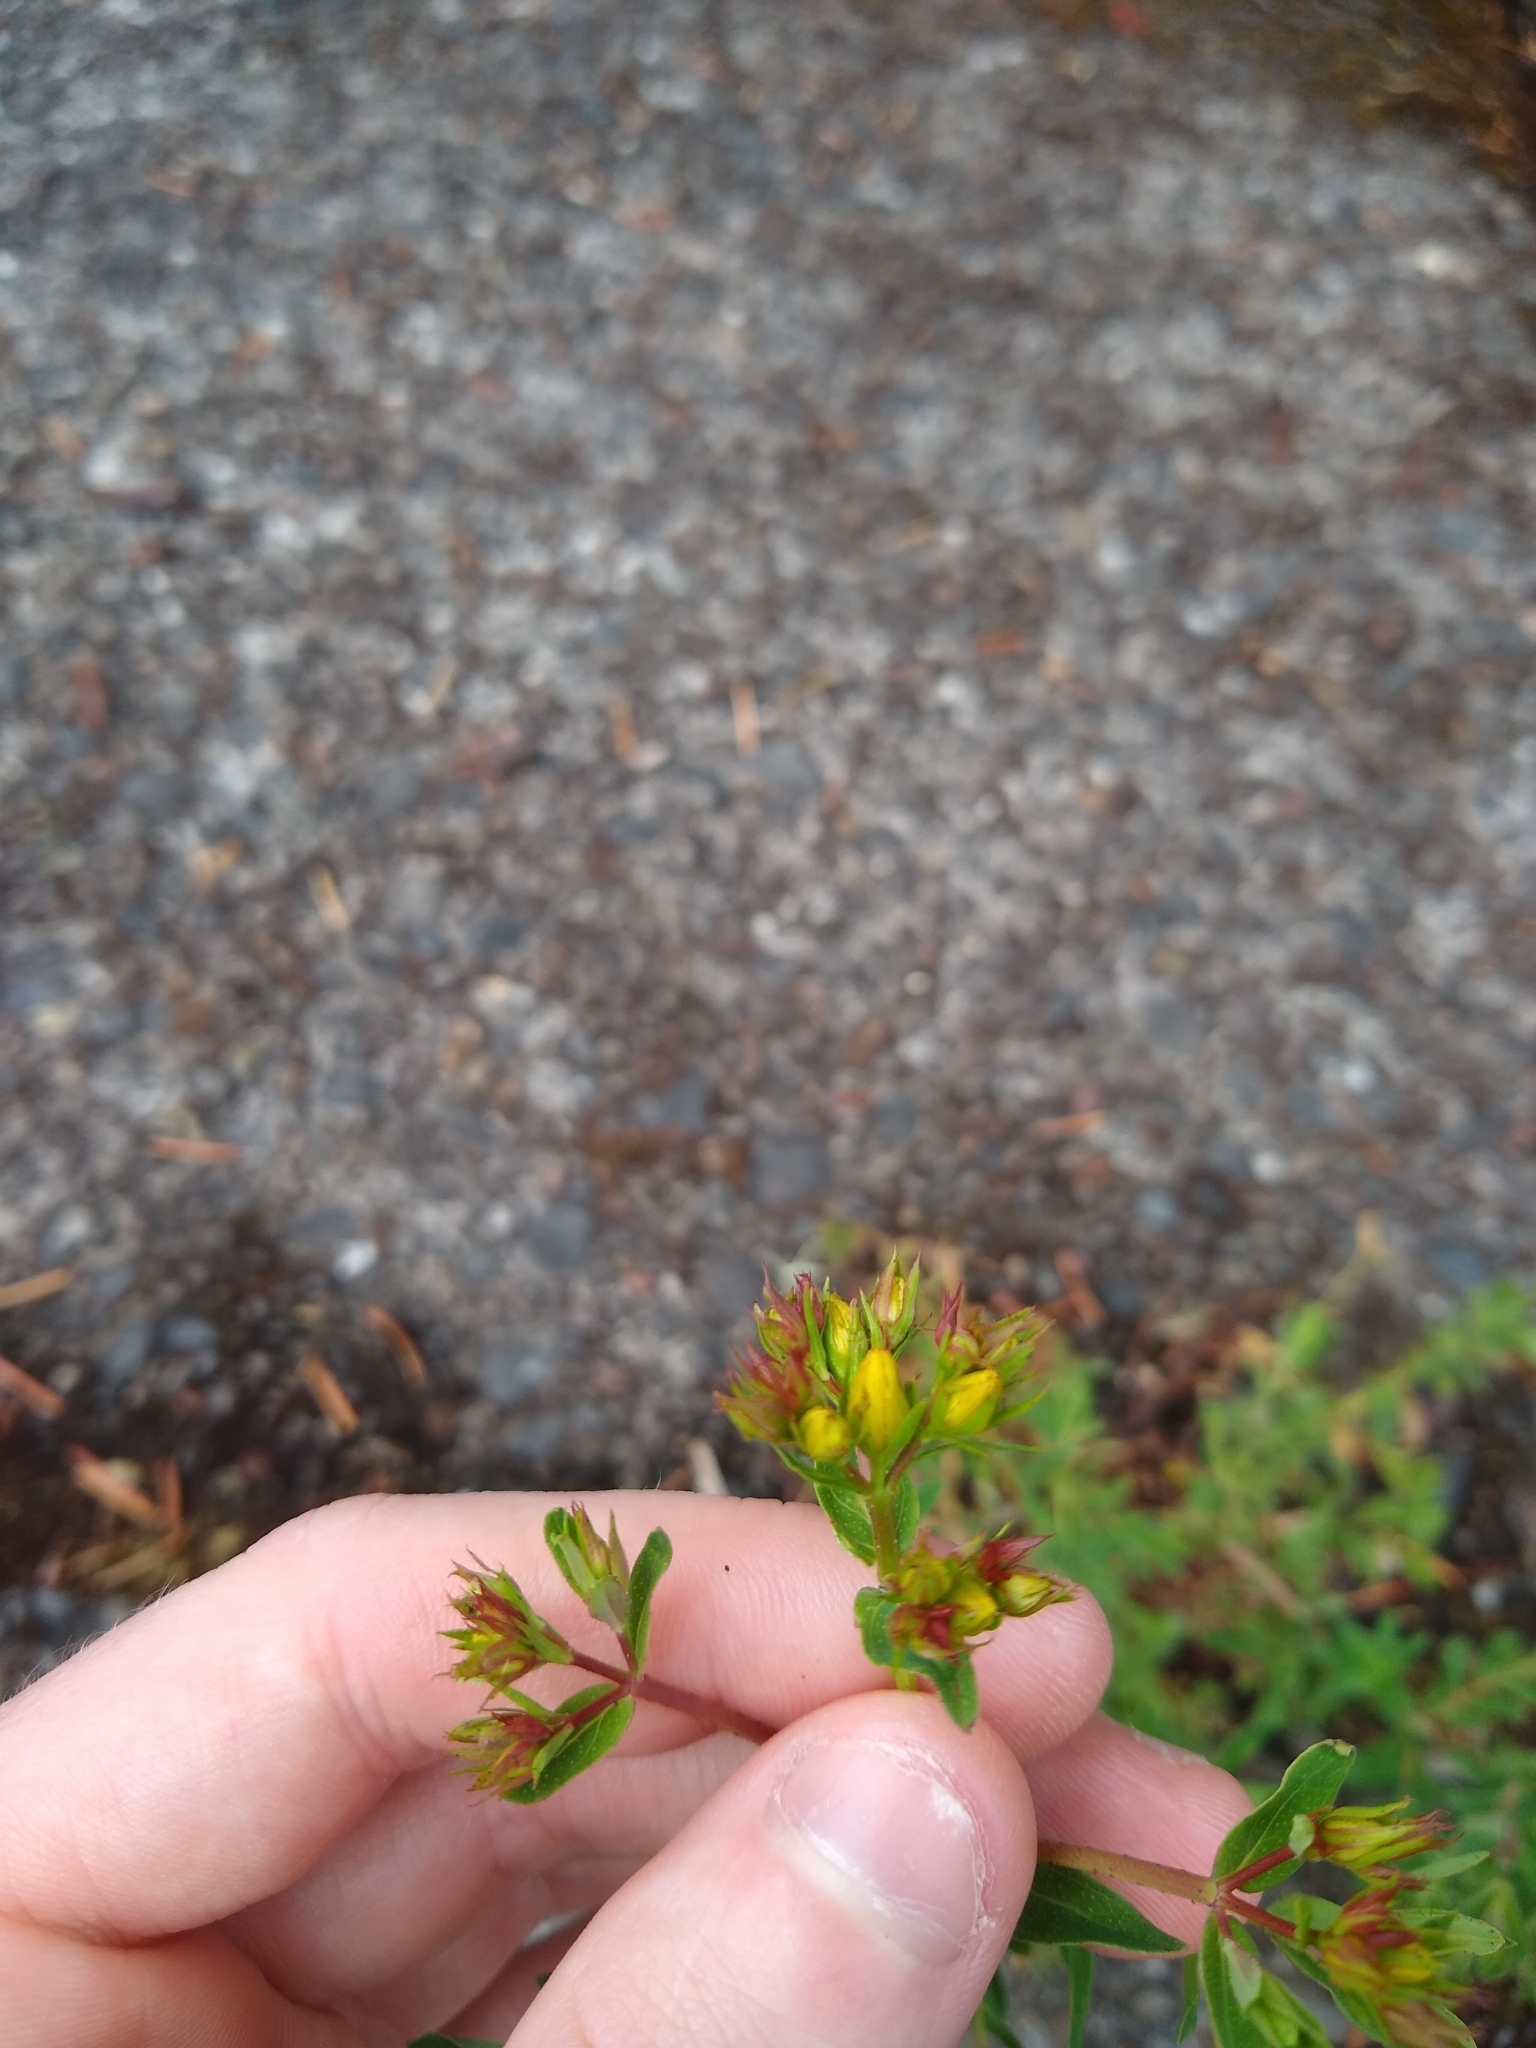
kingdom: Plantae
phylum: Tracheophyta
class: Magnoliopsida
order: Malpighiales
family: Hypericaceae
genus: Hypericum
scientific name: Hypericum perforatum
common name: Common st. johnswort
